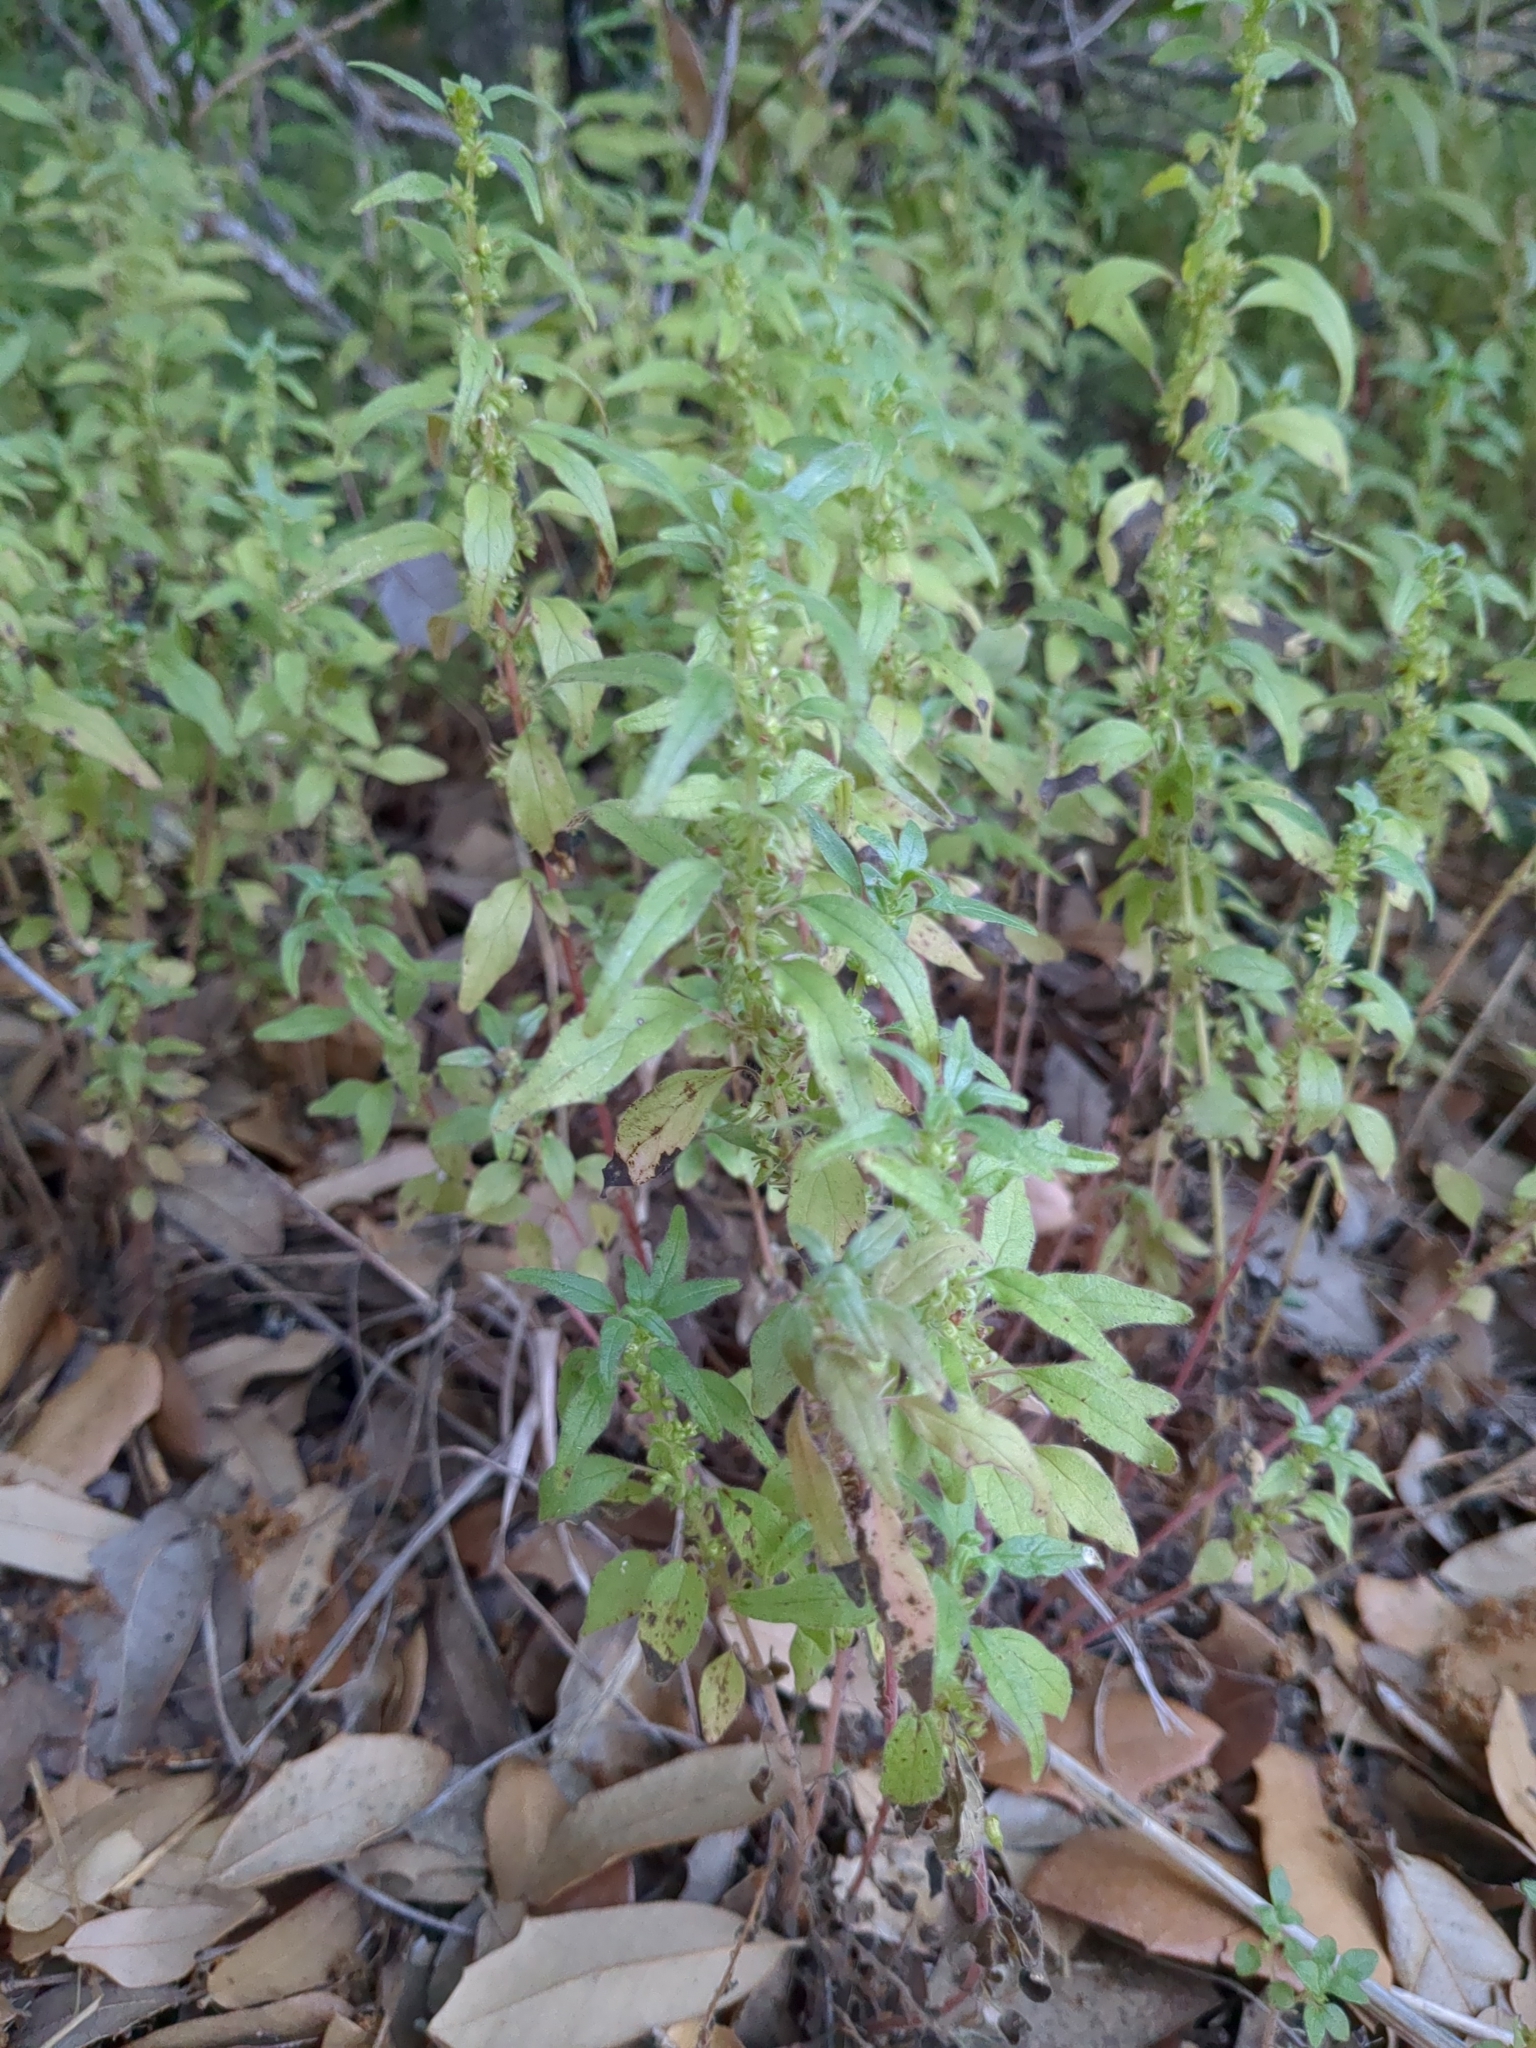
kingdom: Plantae
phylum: Tracheophyta
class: Magnoliopsida
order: Rosales
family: Urticaceae
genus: Parietaria
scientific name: Parietaria pensylvanica
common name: Pennsylvania pellitory
